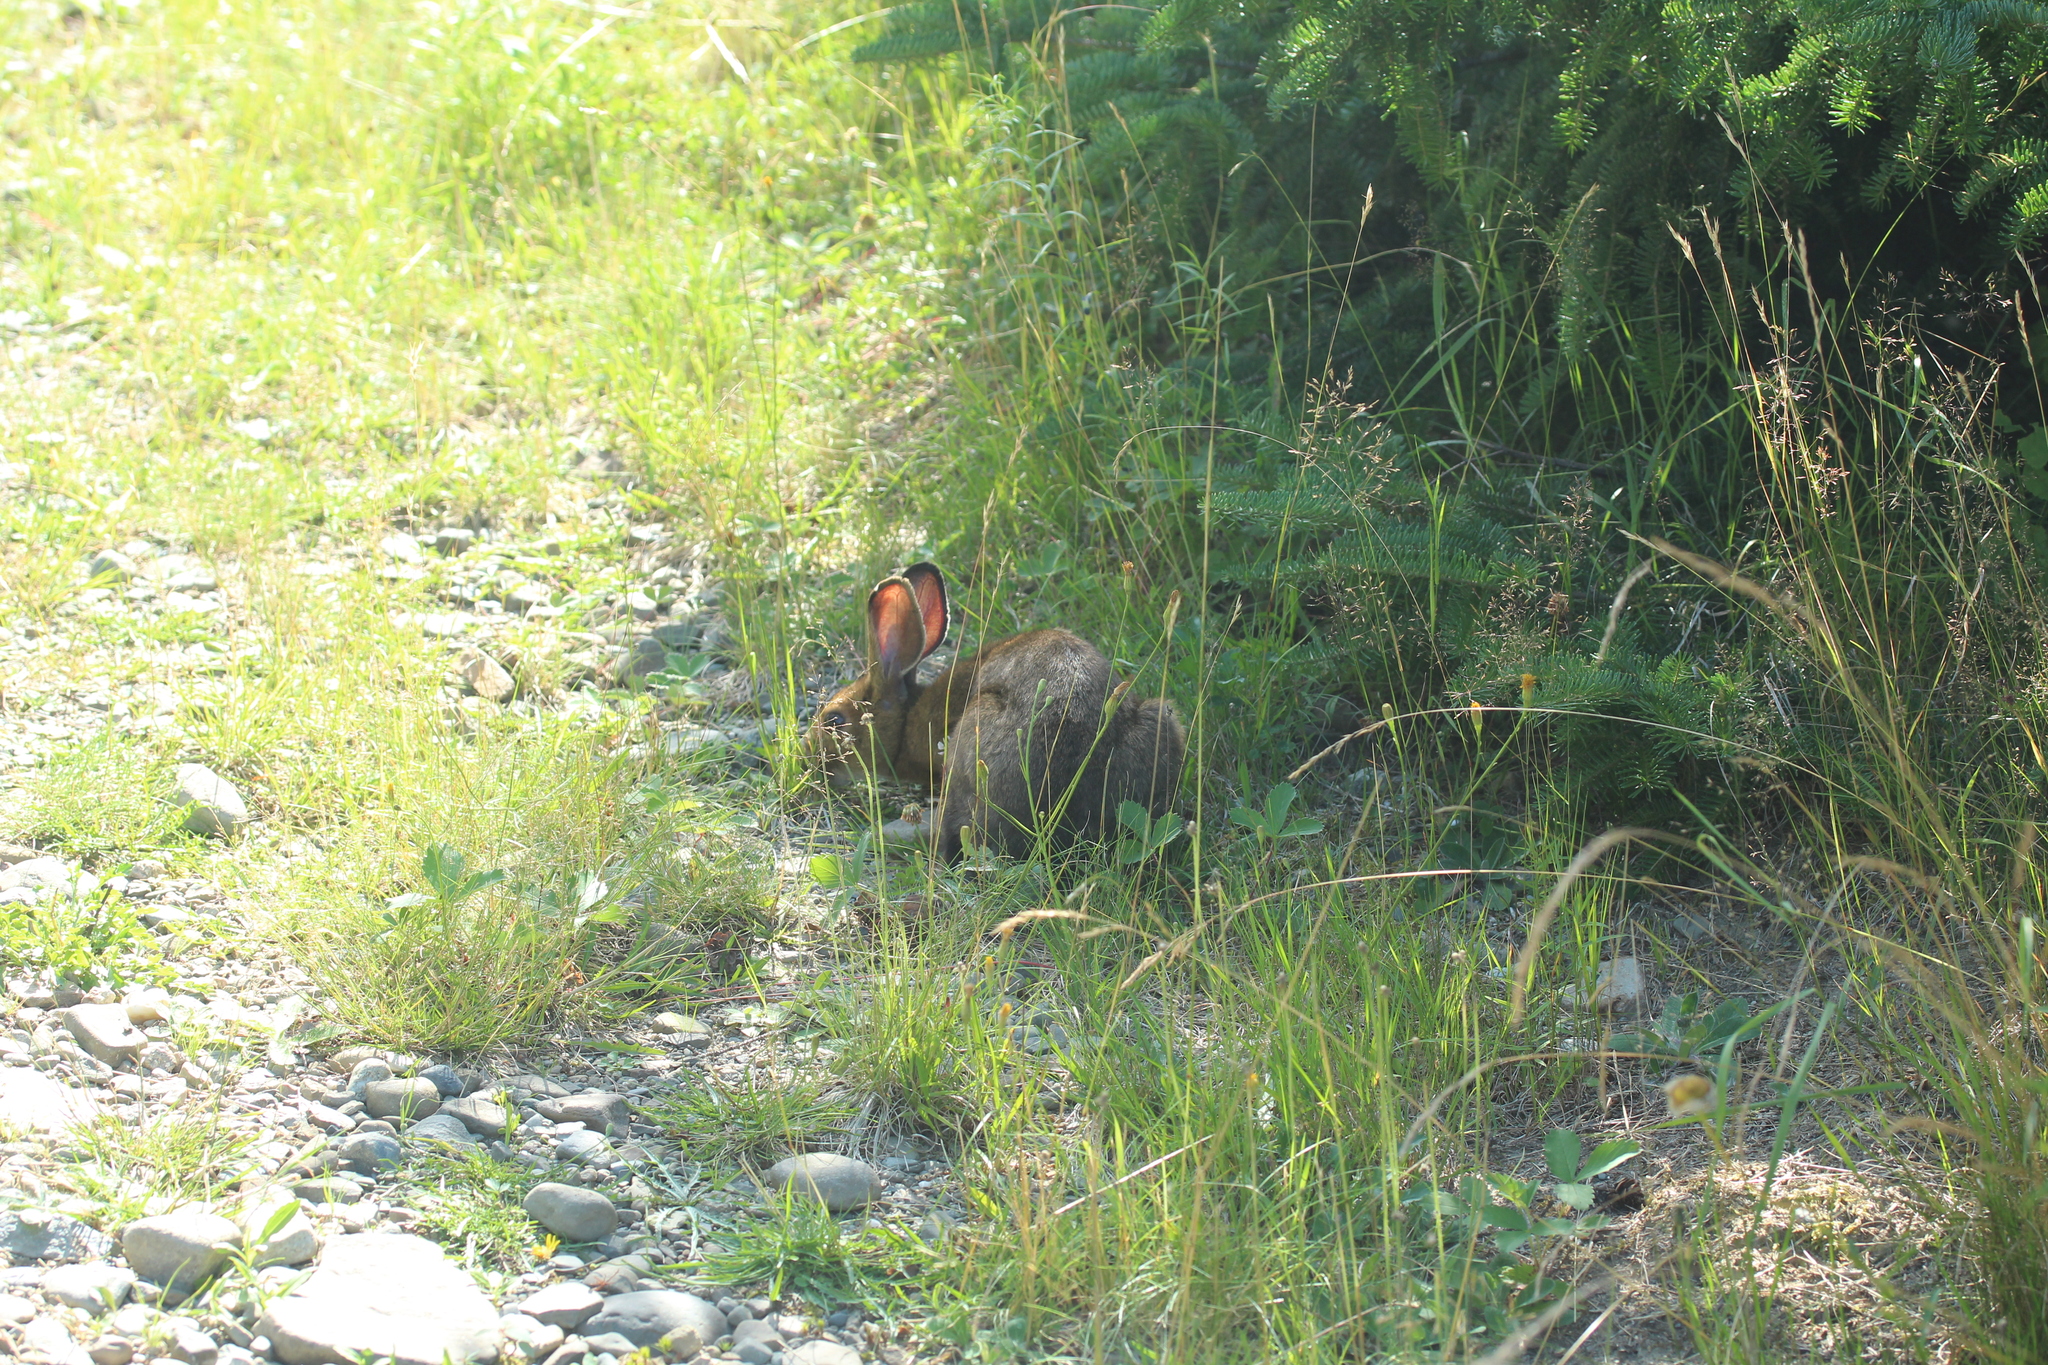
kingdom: Animalia
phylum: Chordata
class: Mammalia
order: Lagomorpha
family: Leporidae
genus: Lepus
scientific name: Lepus americanus
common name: Snowshoe hare
